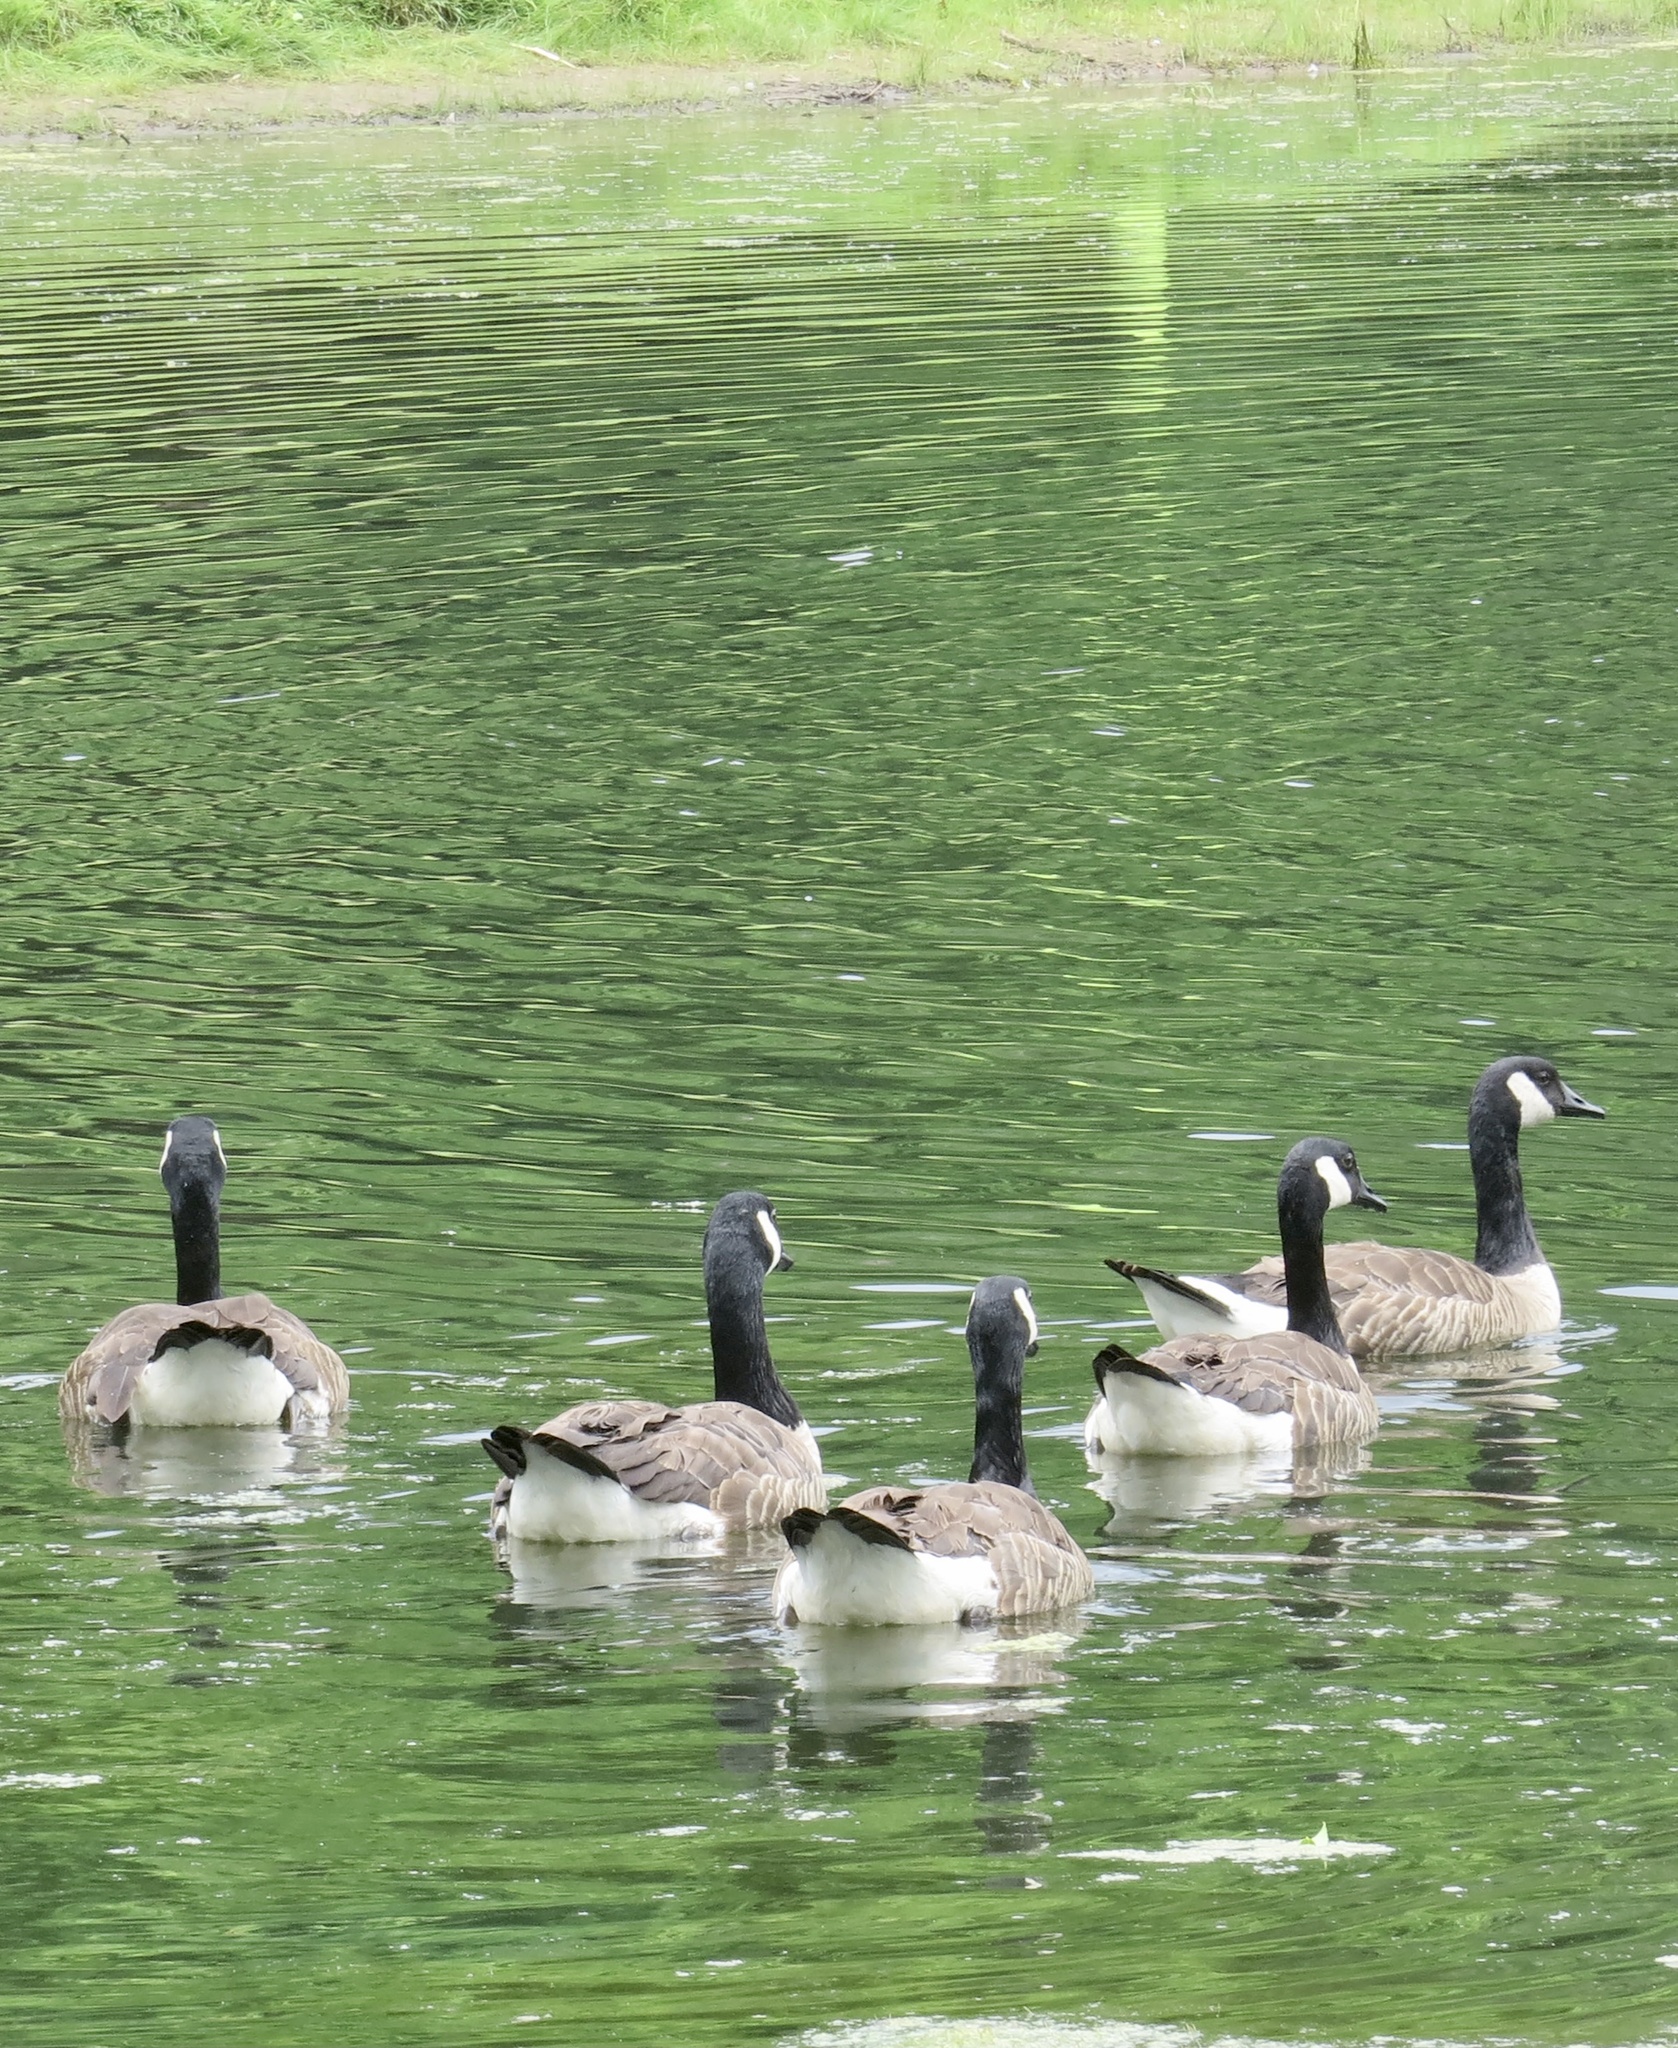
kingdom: Animalia
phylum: Chordata
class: Aves
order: Anseriformes
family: Anatidae
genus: Branta
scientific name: Branta canadensis
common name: Canada goose
